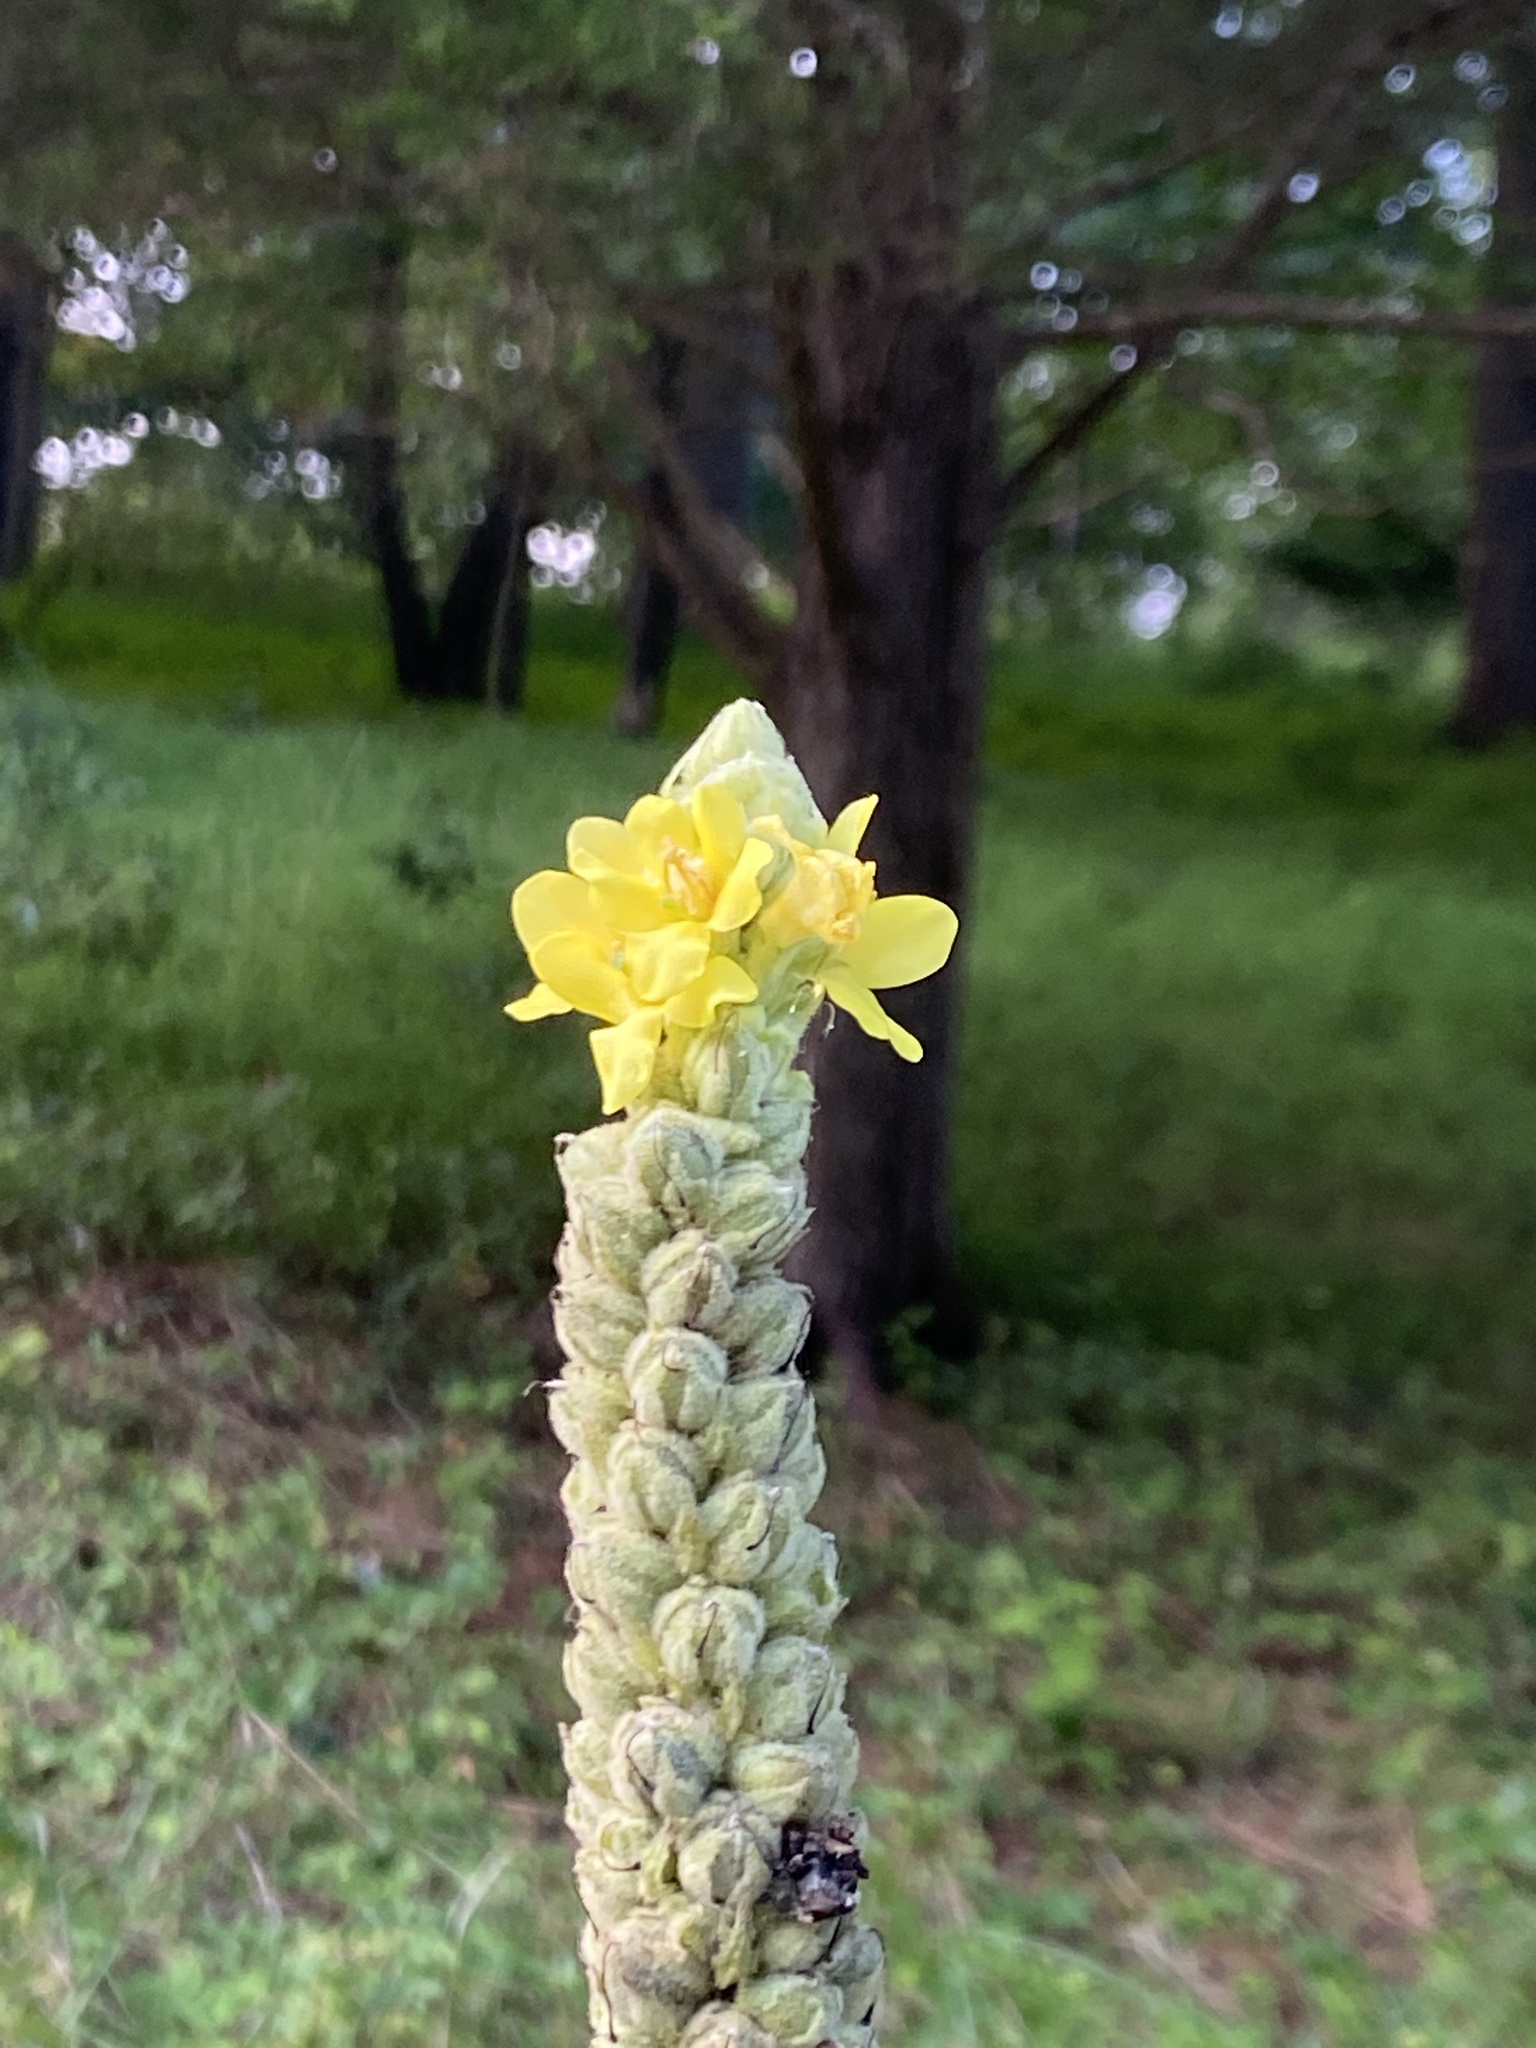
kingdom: Plantae
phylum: Tracheophyta
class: Magnoliopsida
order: Lamiales
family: Scrophulariaceae
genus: Verbascum
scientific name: Verbascum thapsus
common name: Common mullein
